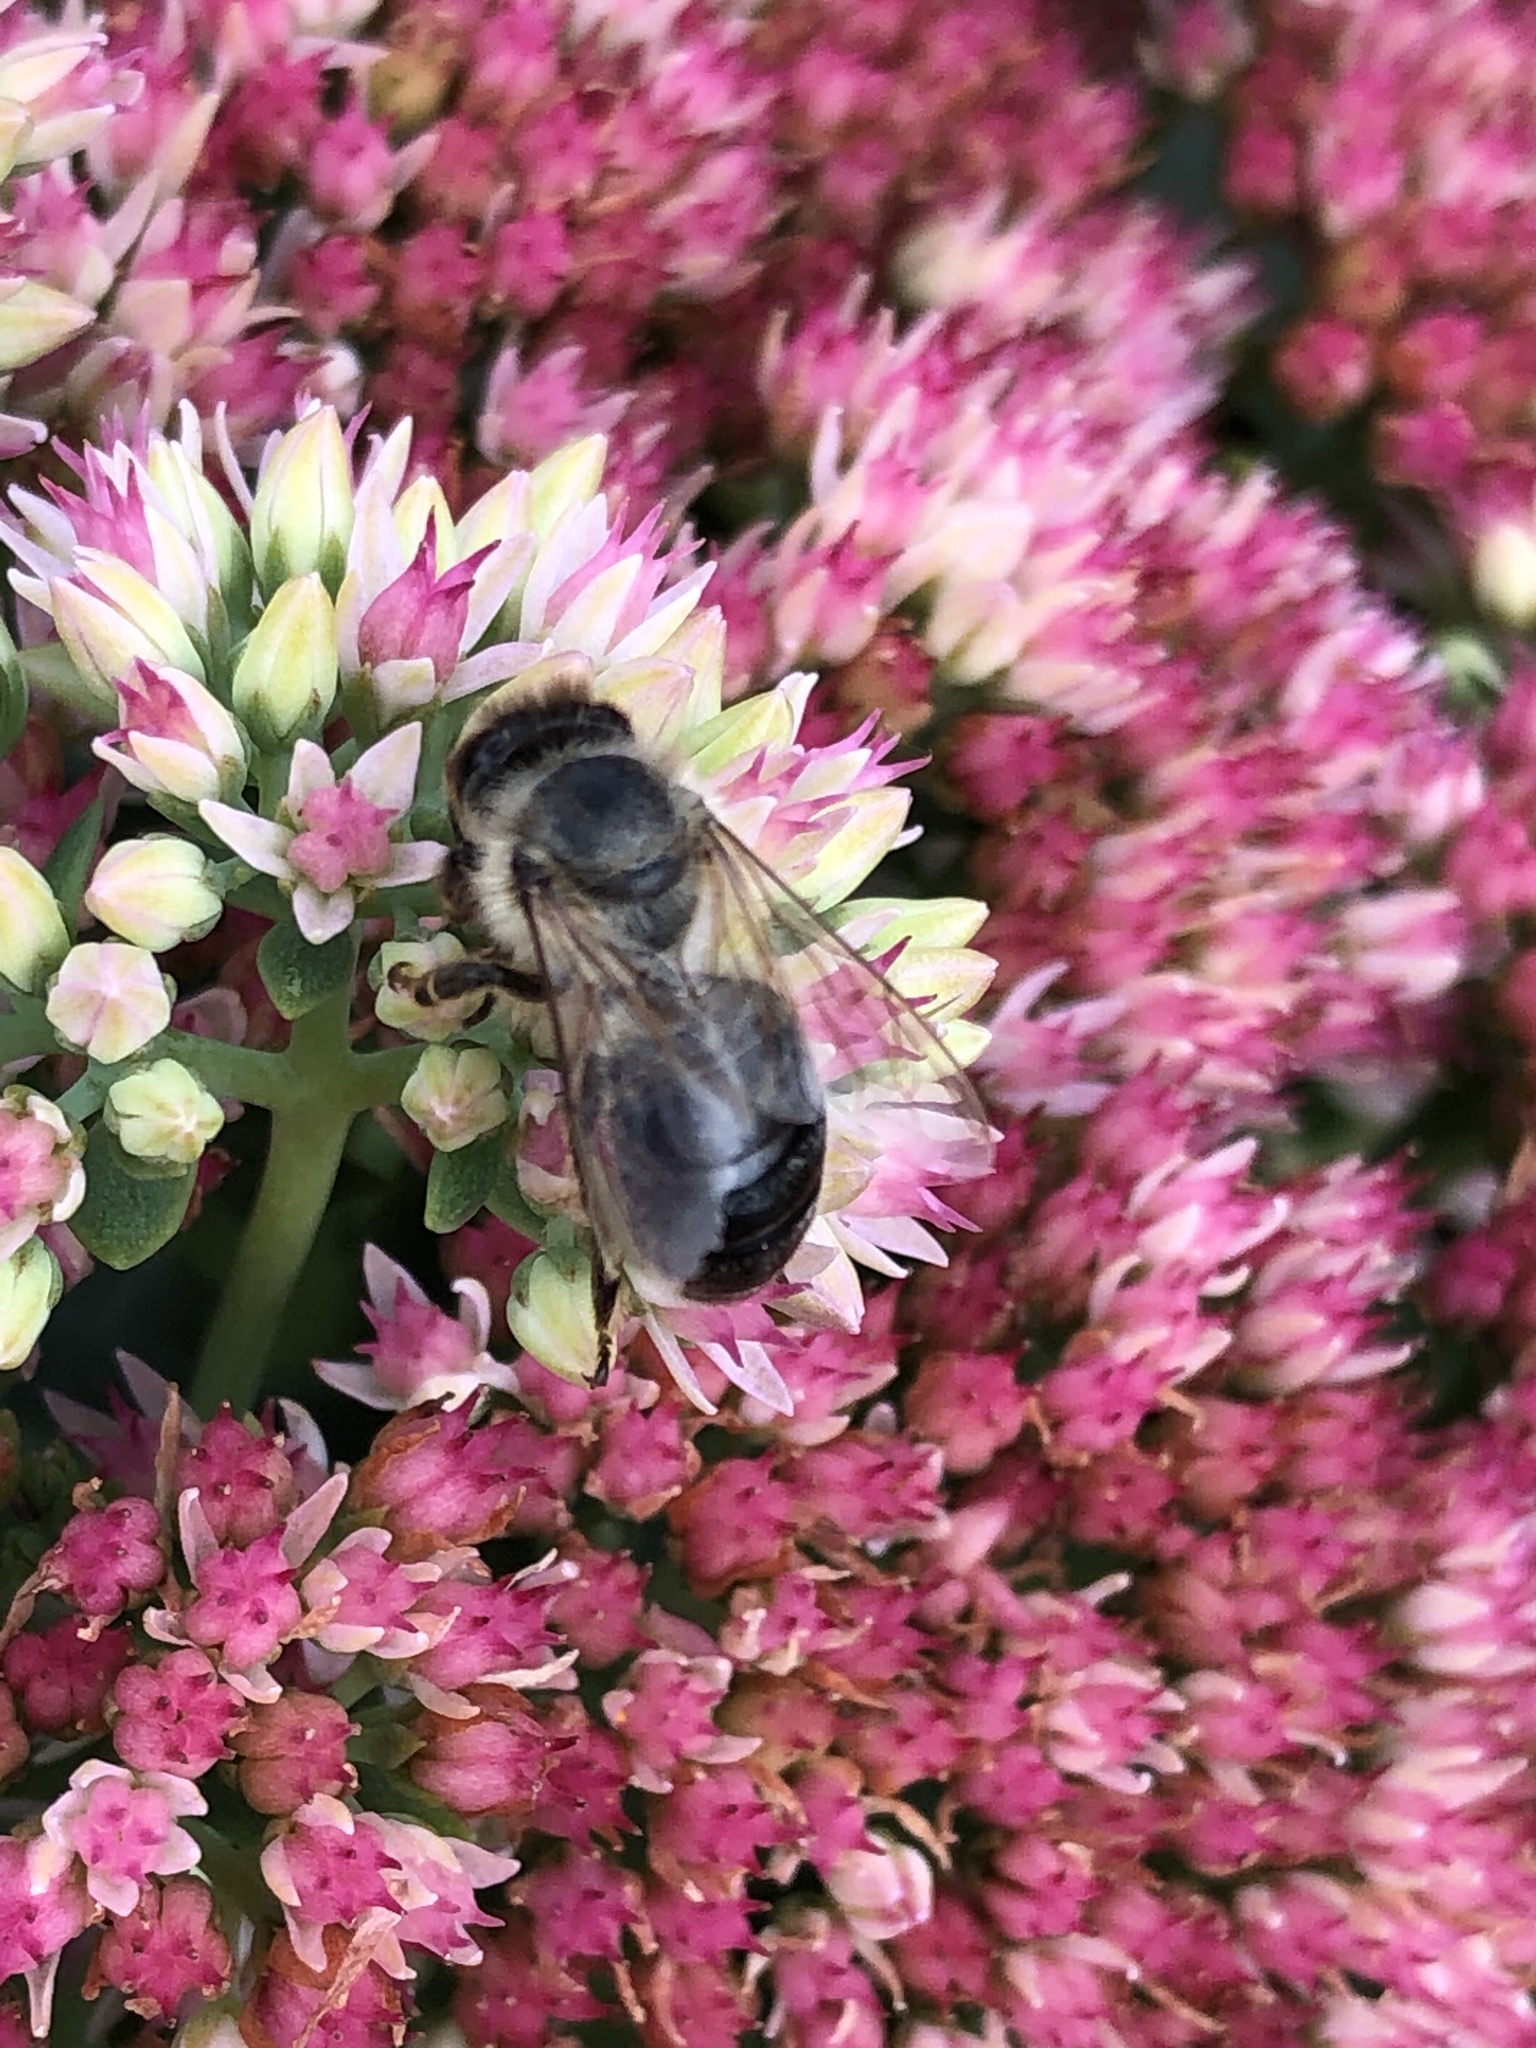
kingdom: Animalia
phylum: Arthropoda
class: Insecta
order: Hymenoptera
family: Apidae
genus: Apis
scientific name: Apis mellifera
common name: Honey bee
